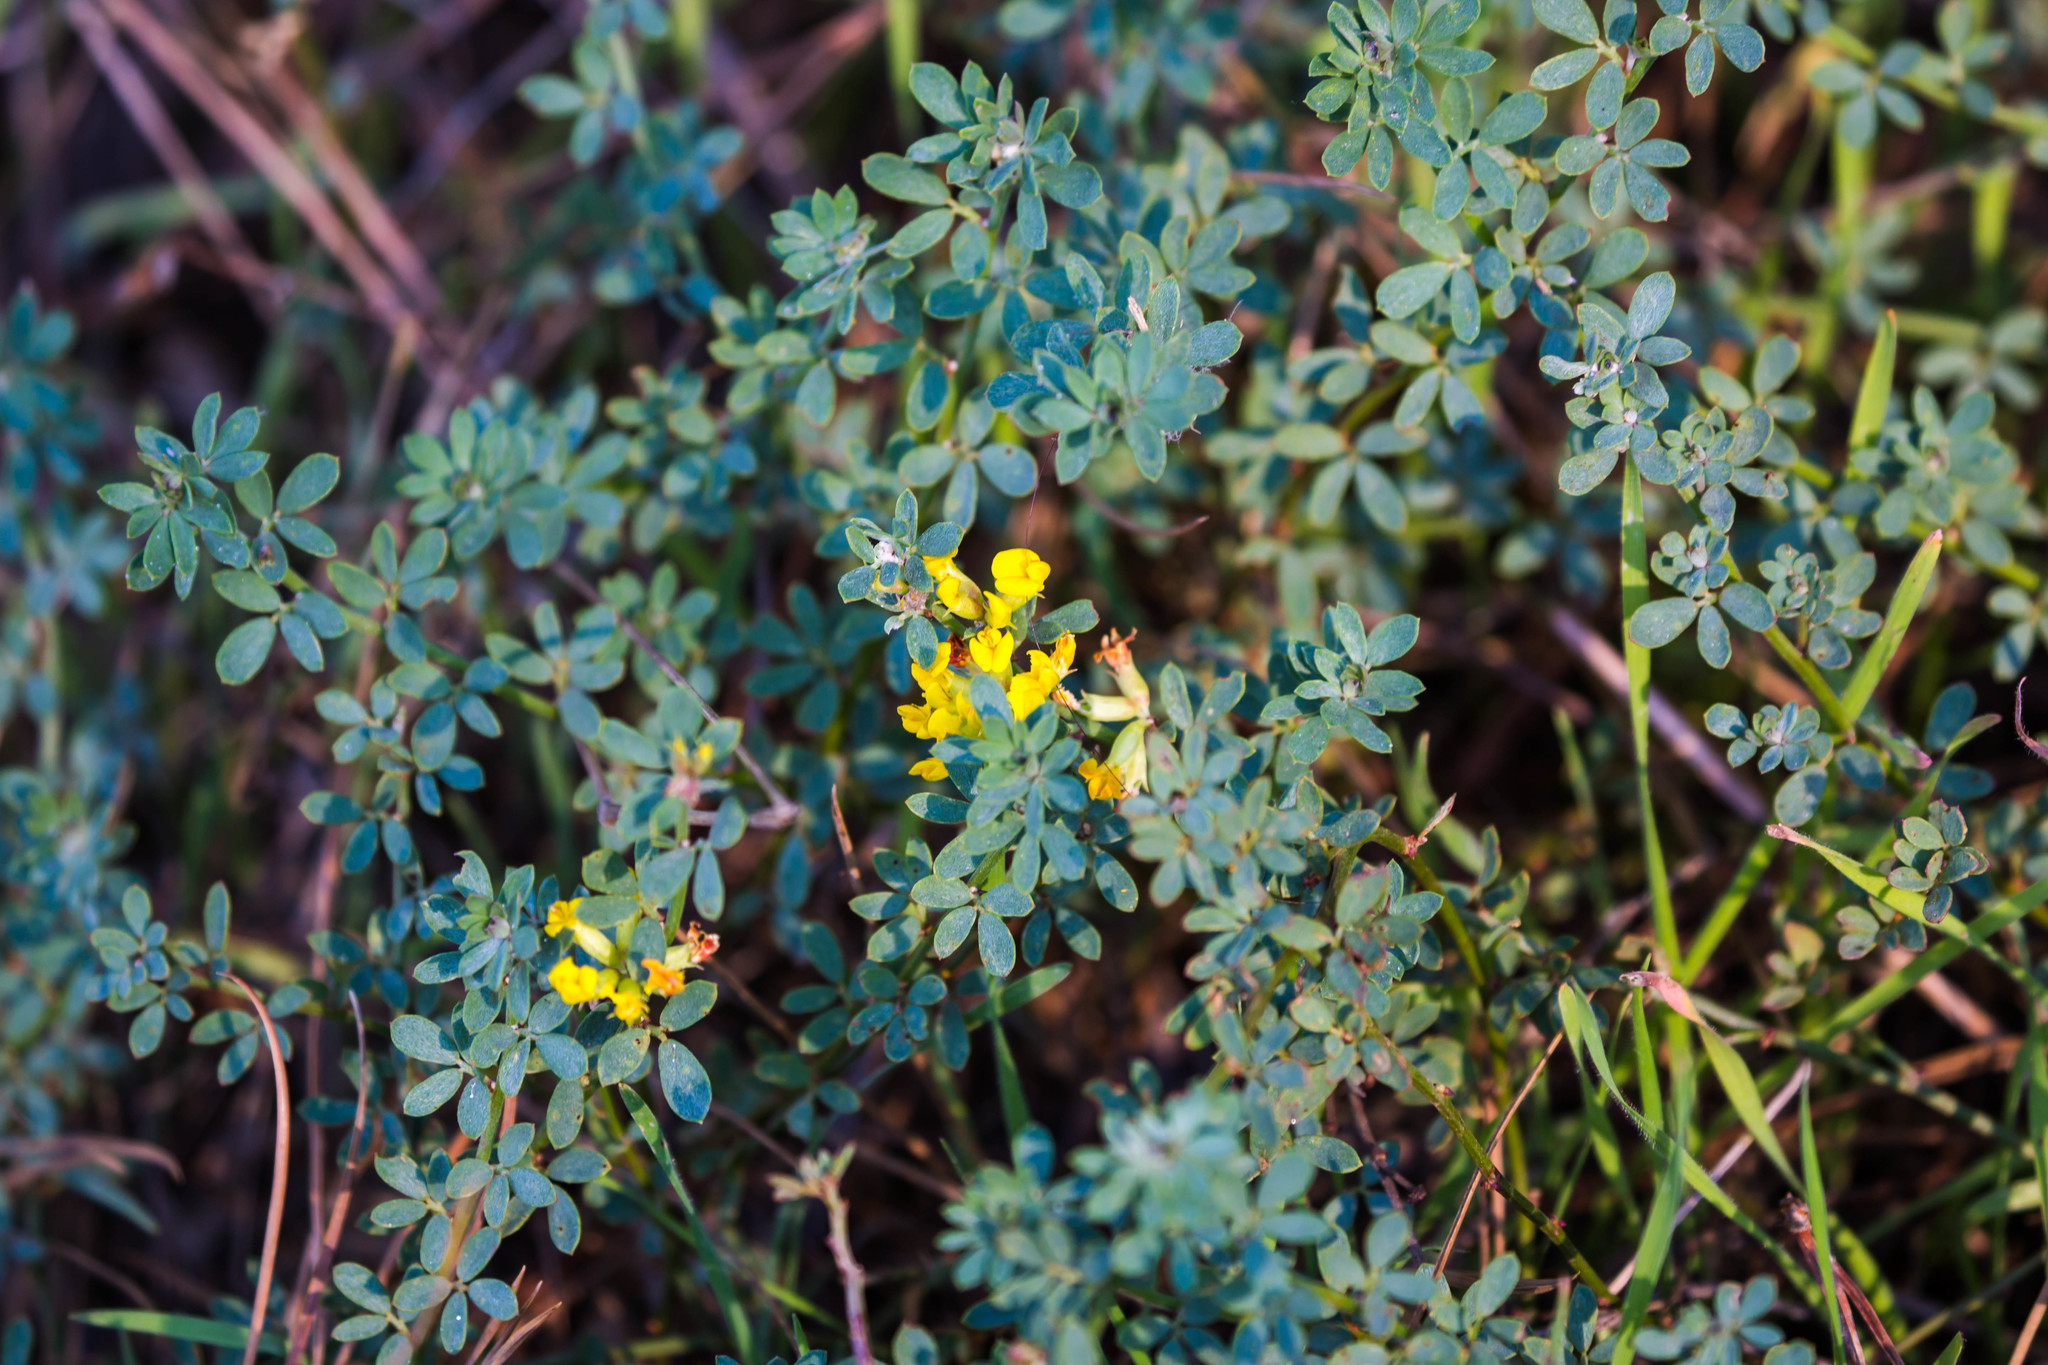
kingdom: Plantae
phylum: Tracheophyta
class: Magnoliopsida
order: Fabales
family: Fabaceae
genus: Acmispon
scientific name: Acmispon glaber
